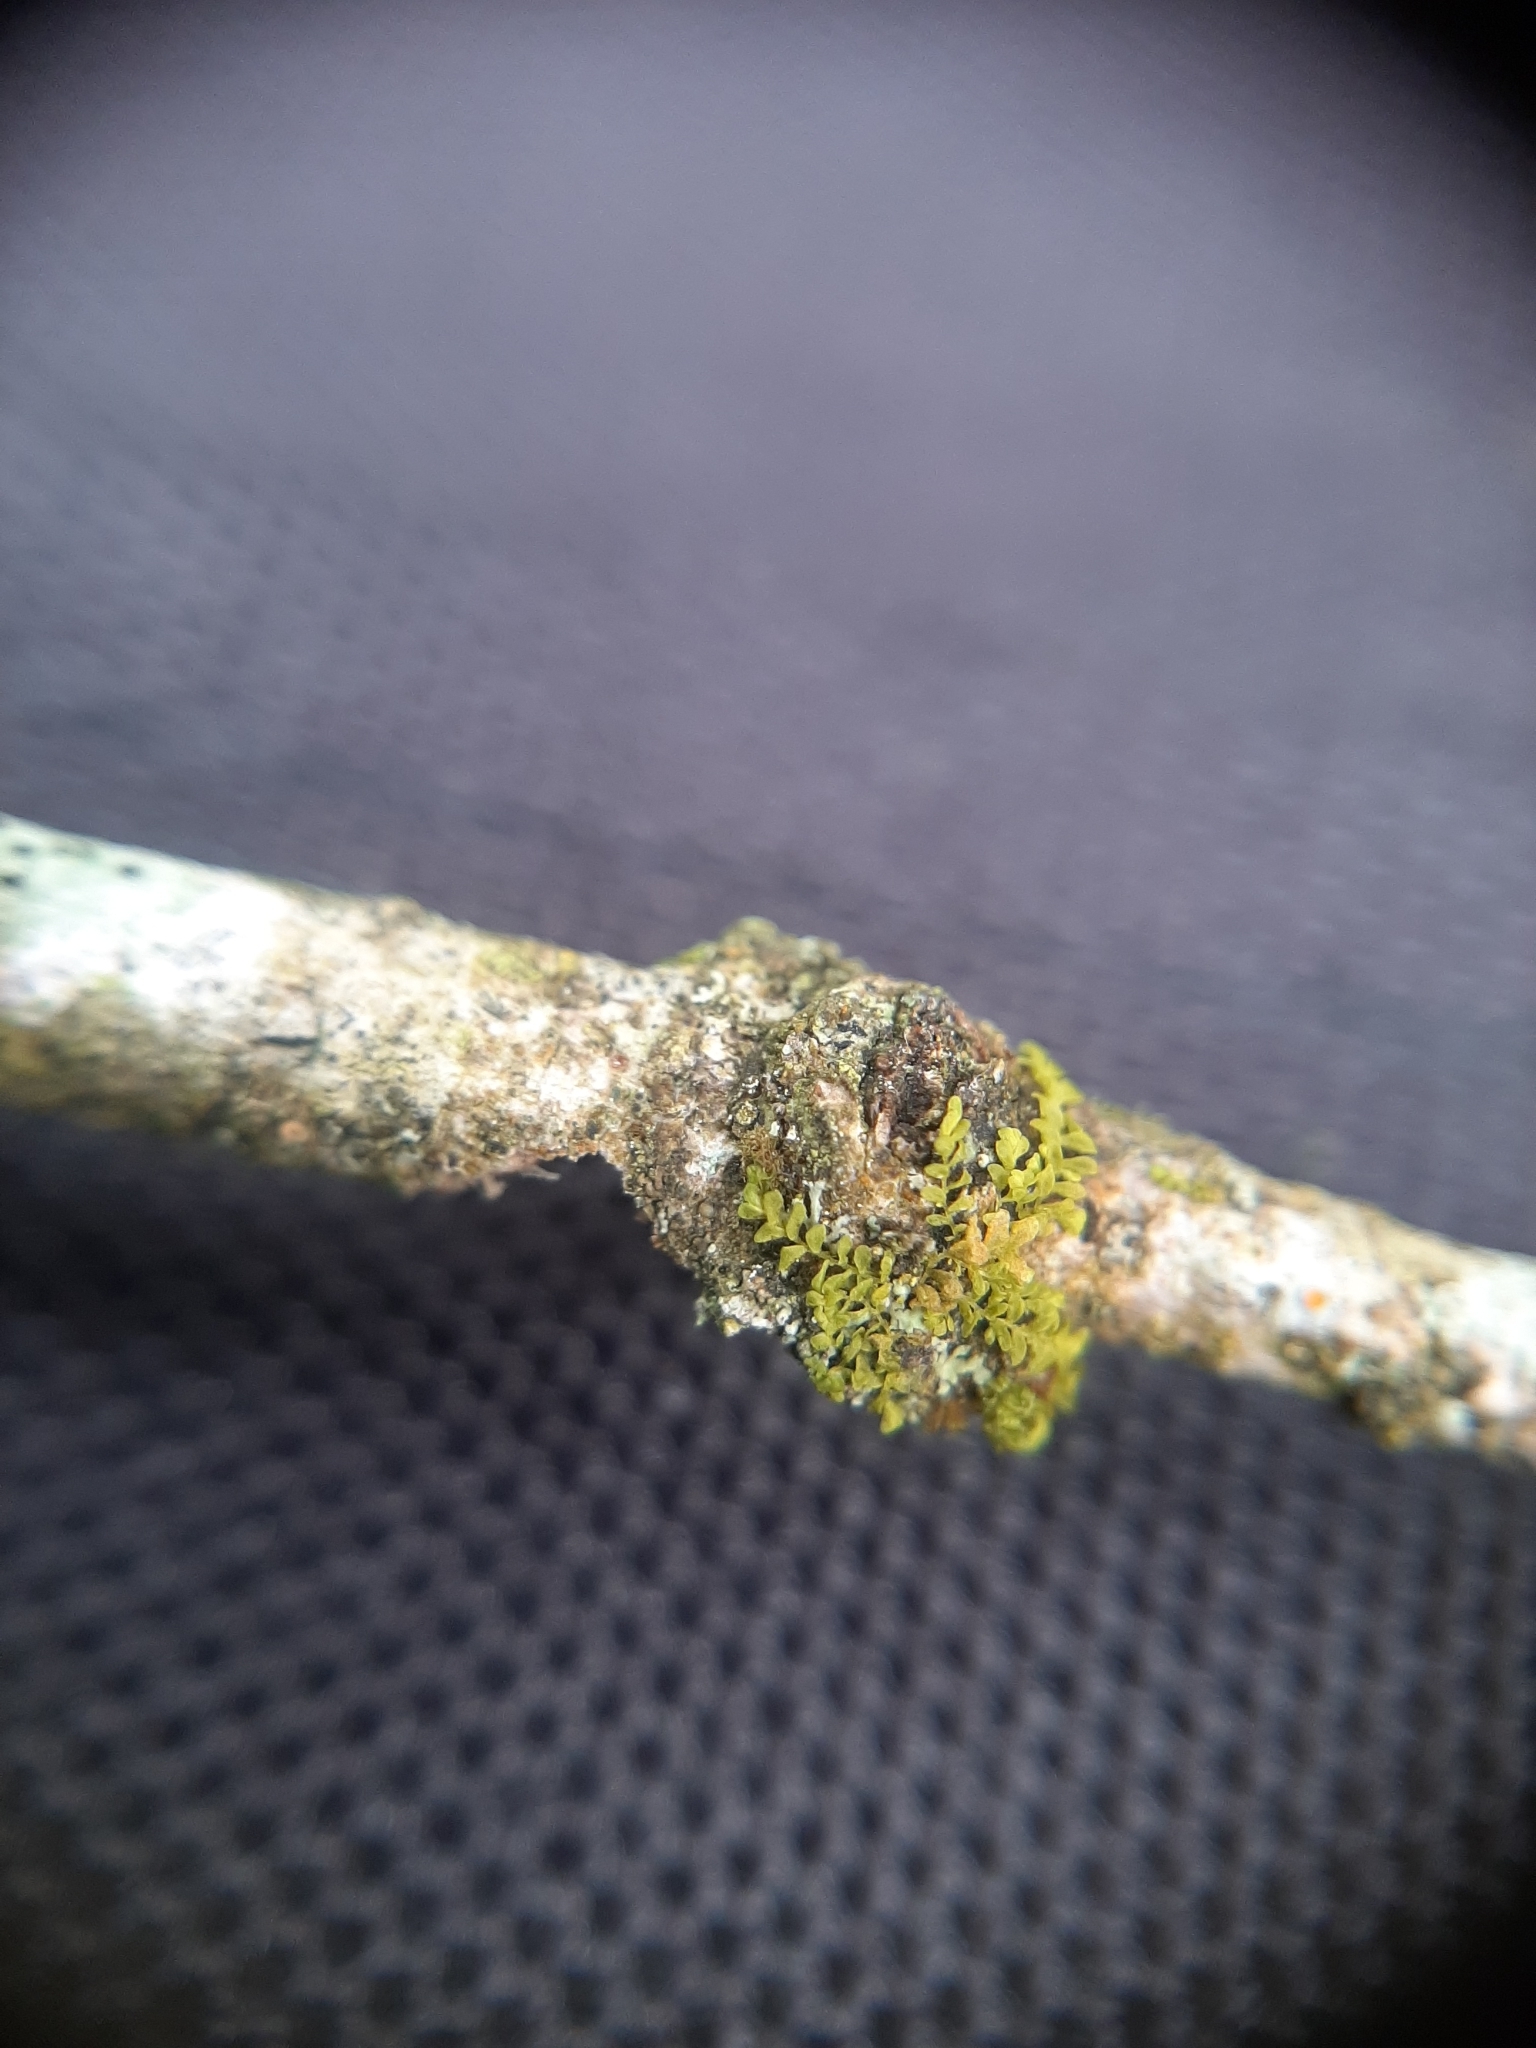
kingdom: Plantae
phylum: Marchantiophyta
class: Jungermanniopsida
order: Porellales
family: Lejeuneaceae
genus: Siphonolejeunea
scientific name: Siphonolejeunea nudipes
